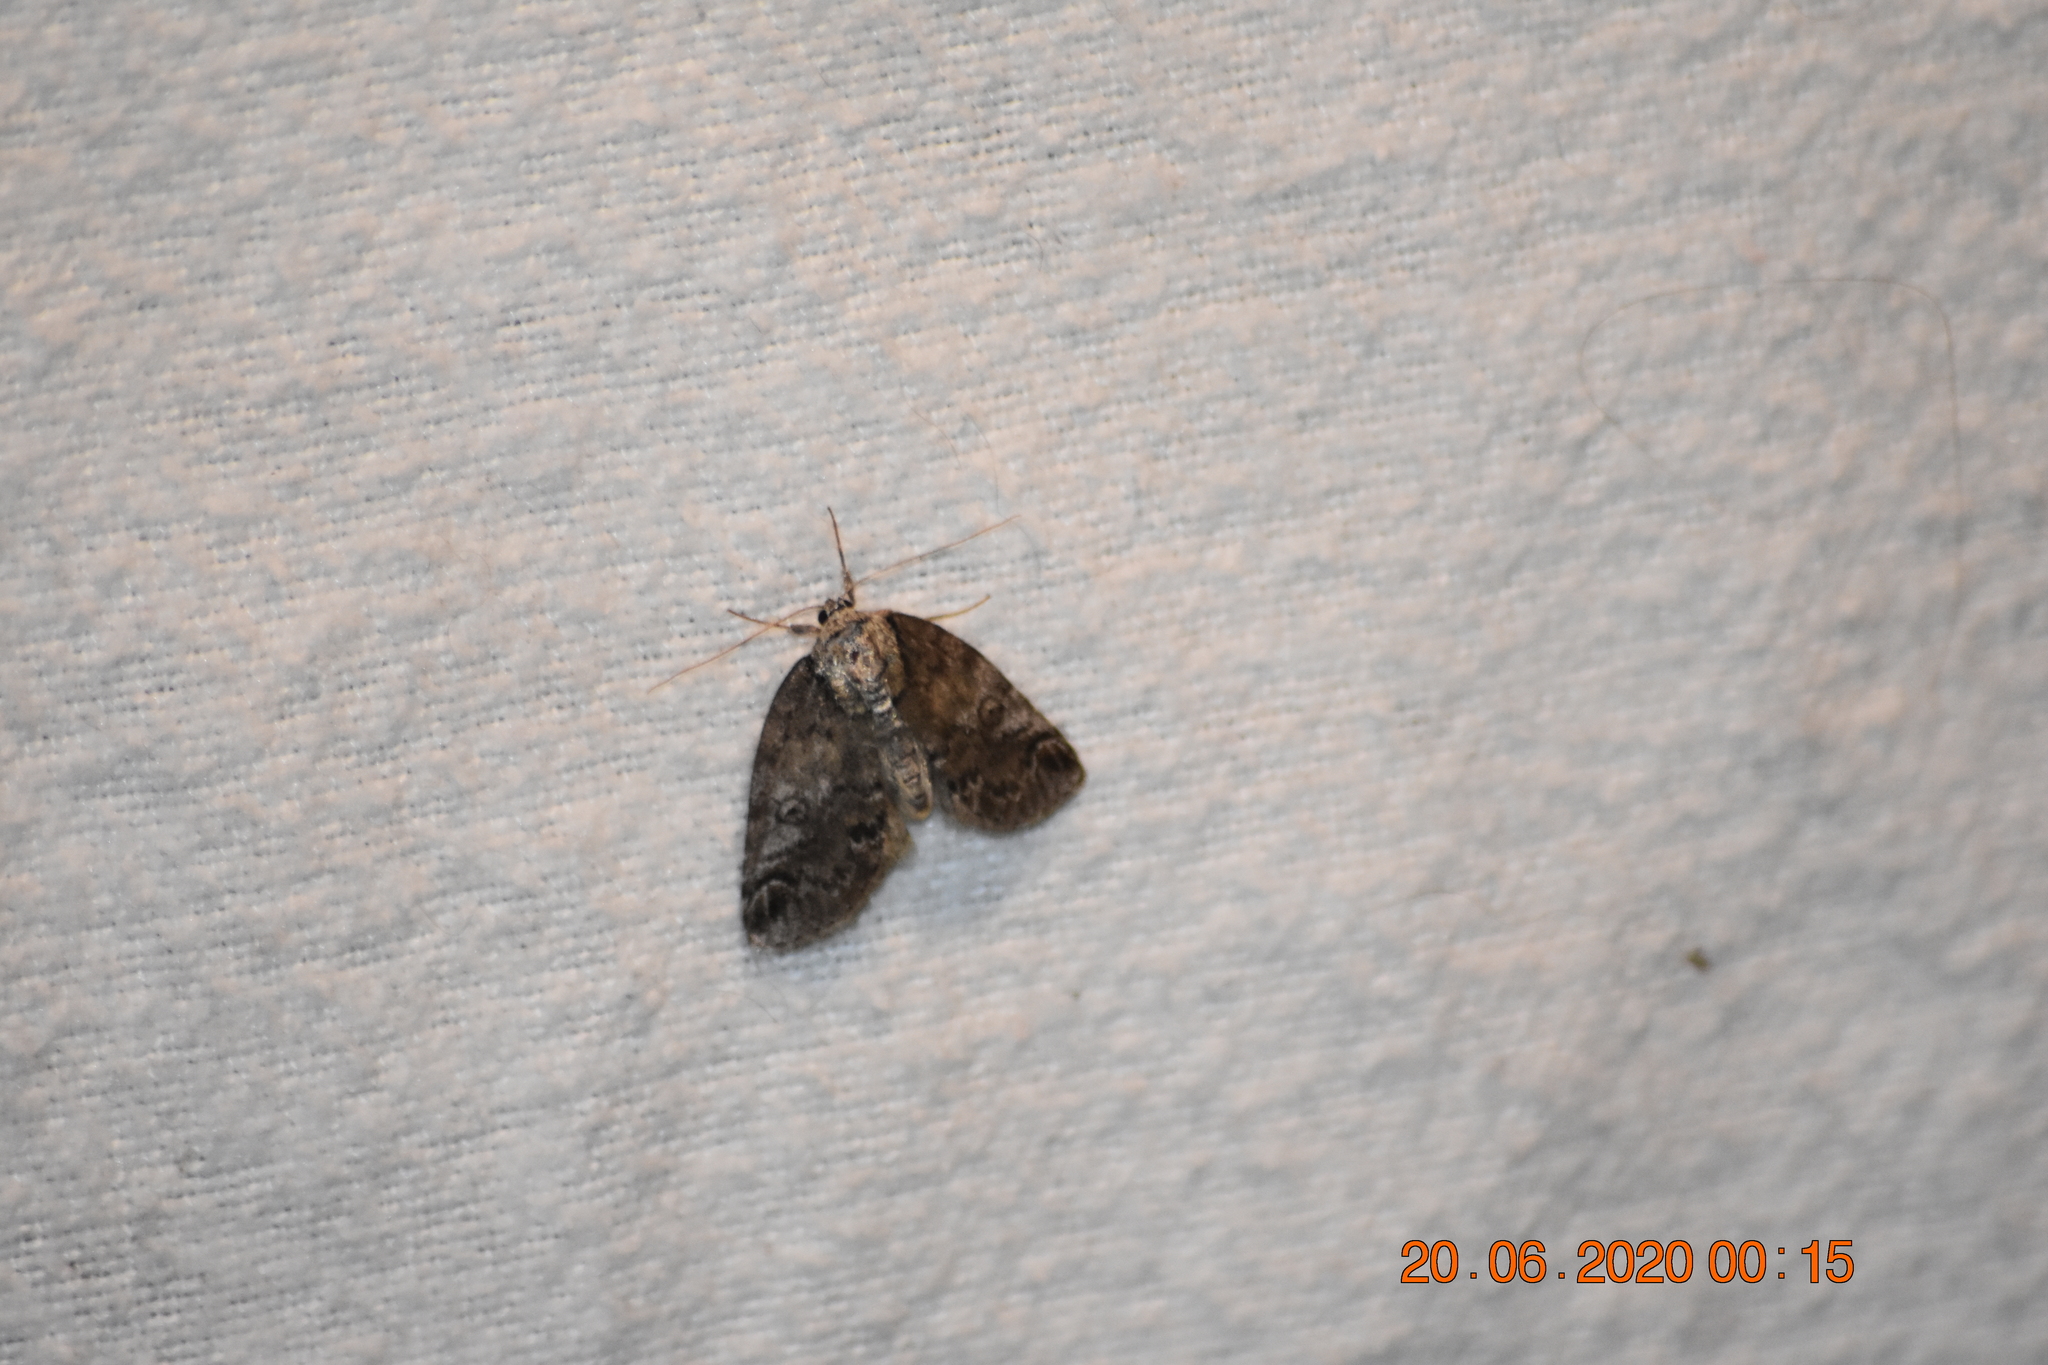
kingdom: Animalia
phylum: Arthropoda
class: Insecta
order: Lepidoptera
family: Nolidae
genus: Baileya
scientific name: Baileya ophthalmica
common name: Eyed baileya moth
